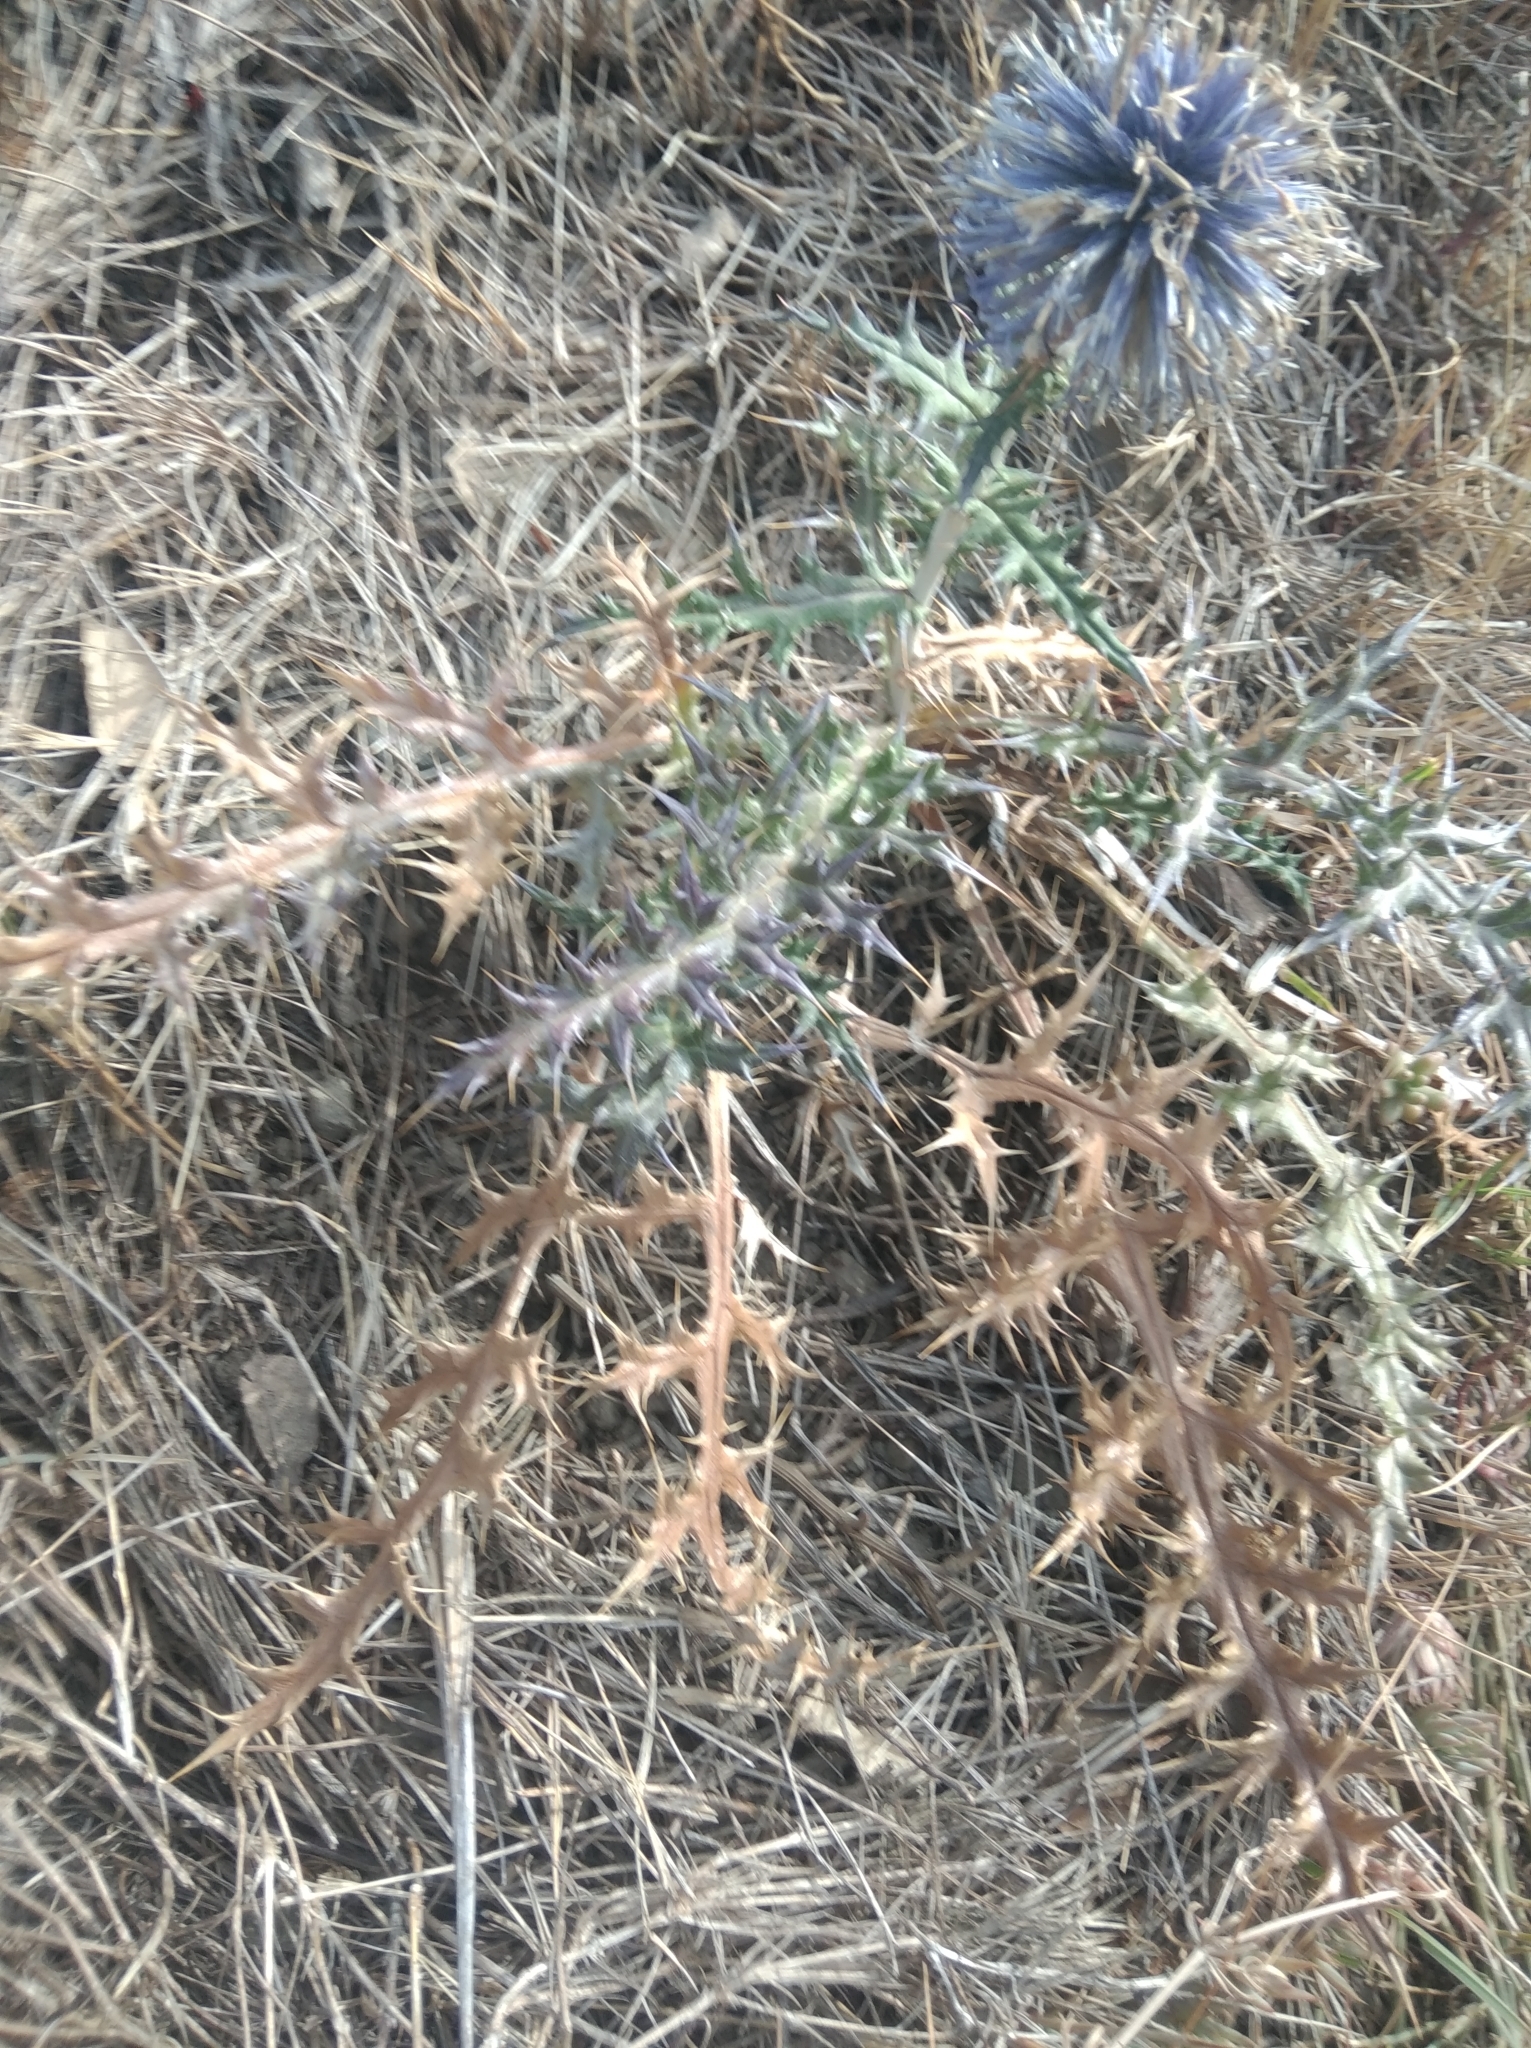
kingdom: Plantae
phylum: Tracheophyta
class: Magnoliopsida
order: Asterales
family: Asteraceae
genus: Echinops
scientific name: Echinops ritro
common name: Globe thistle
